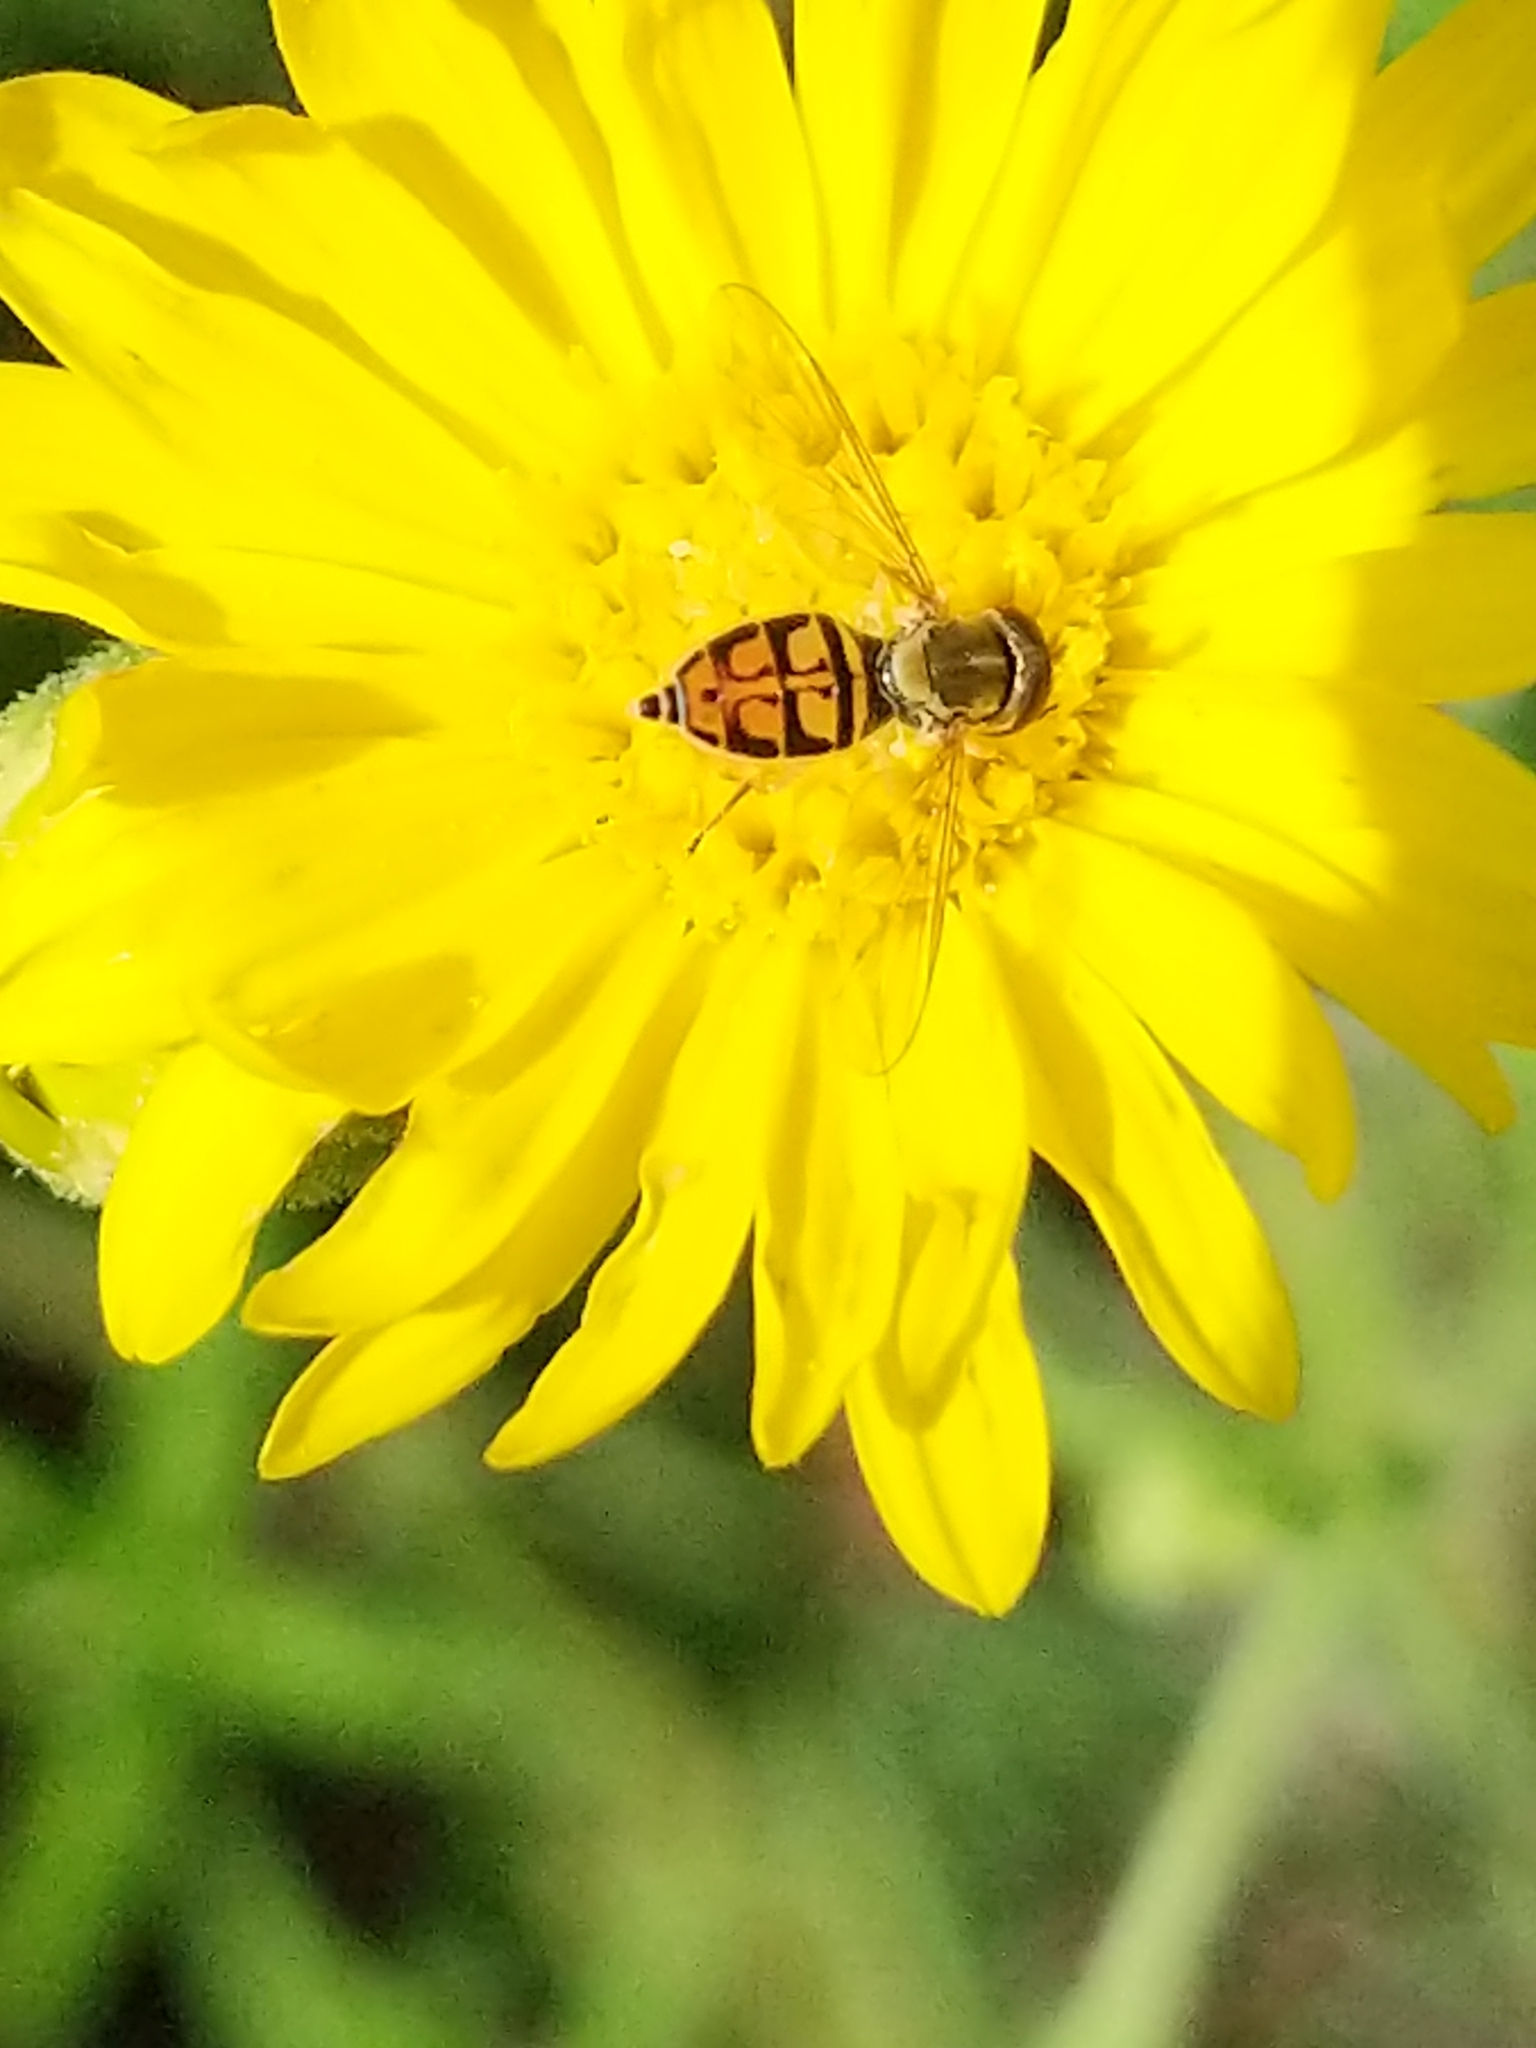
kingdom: Animalia
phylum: Arthropoda
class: Insecta
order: Diptera
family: Syrphidae
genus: Toxomerus
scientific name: Toxomerus marginatus
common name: Syrphid fly
